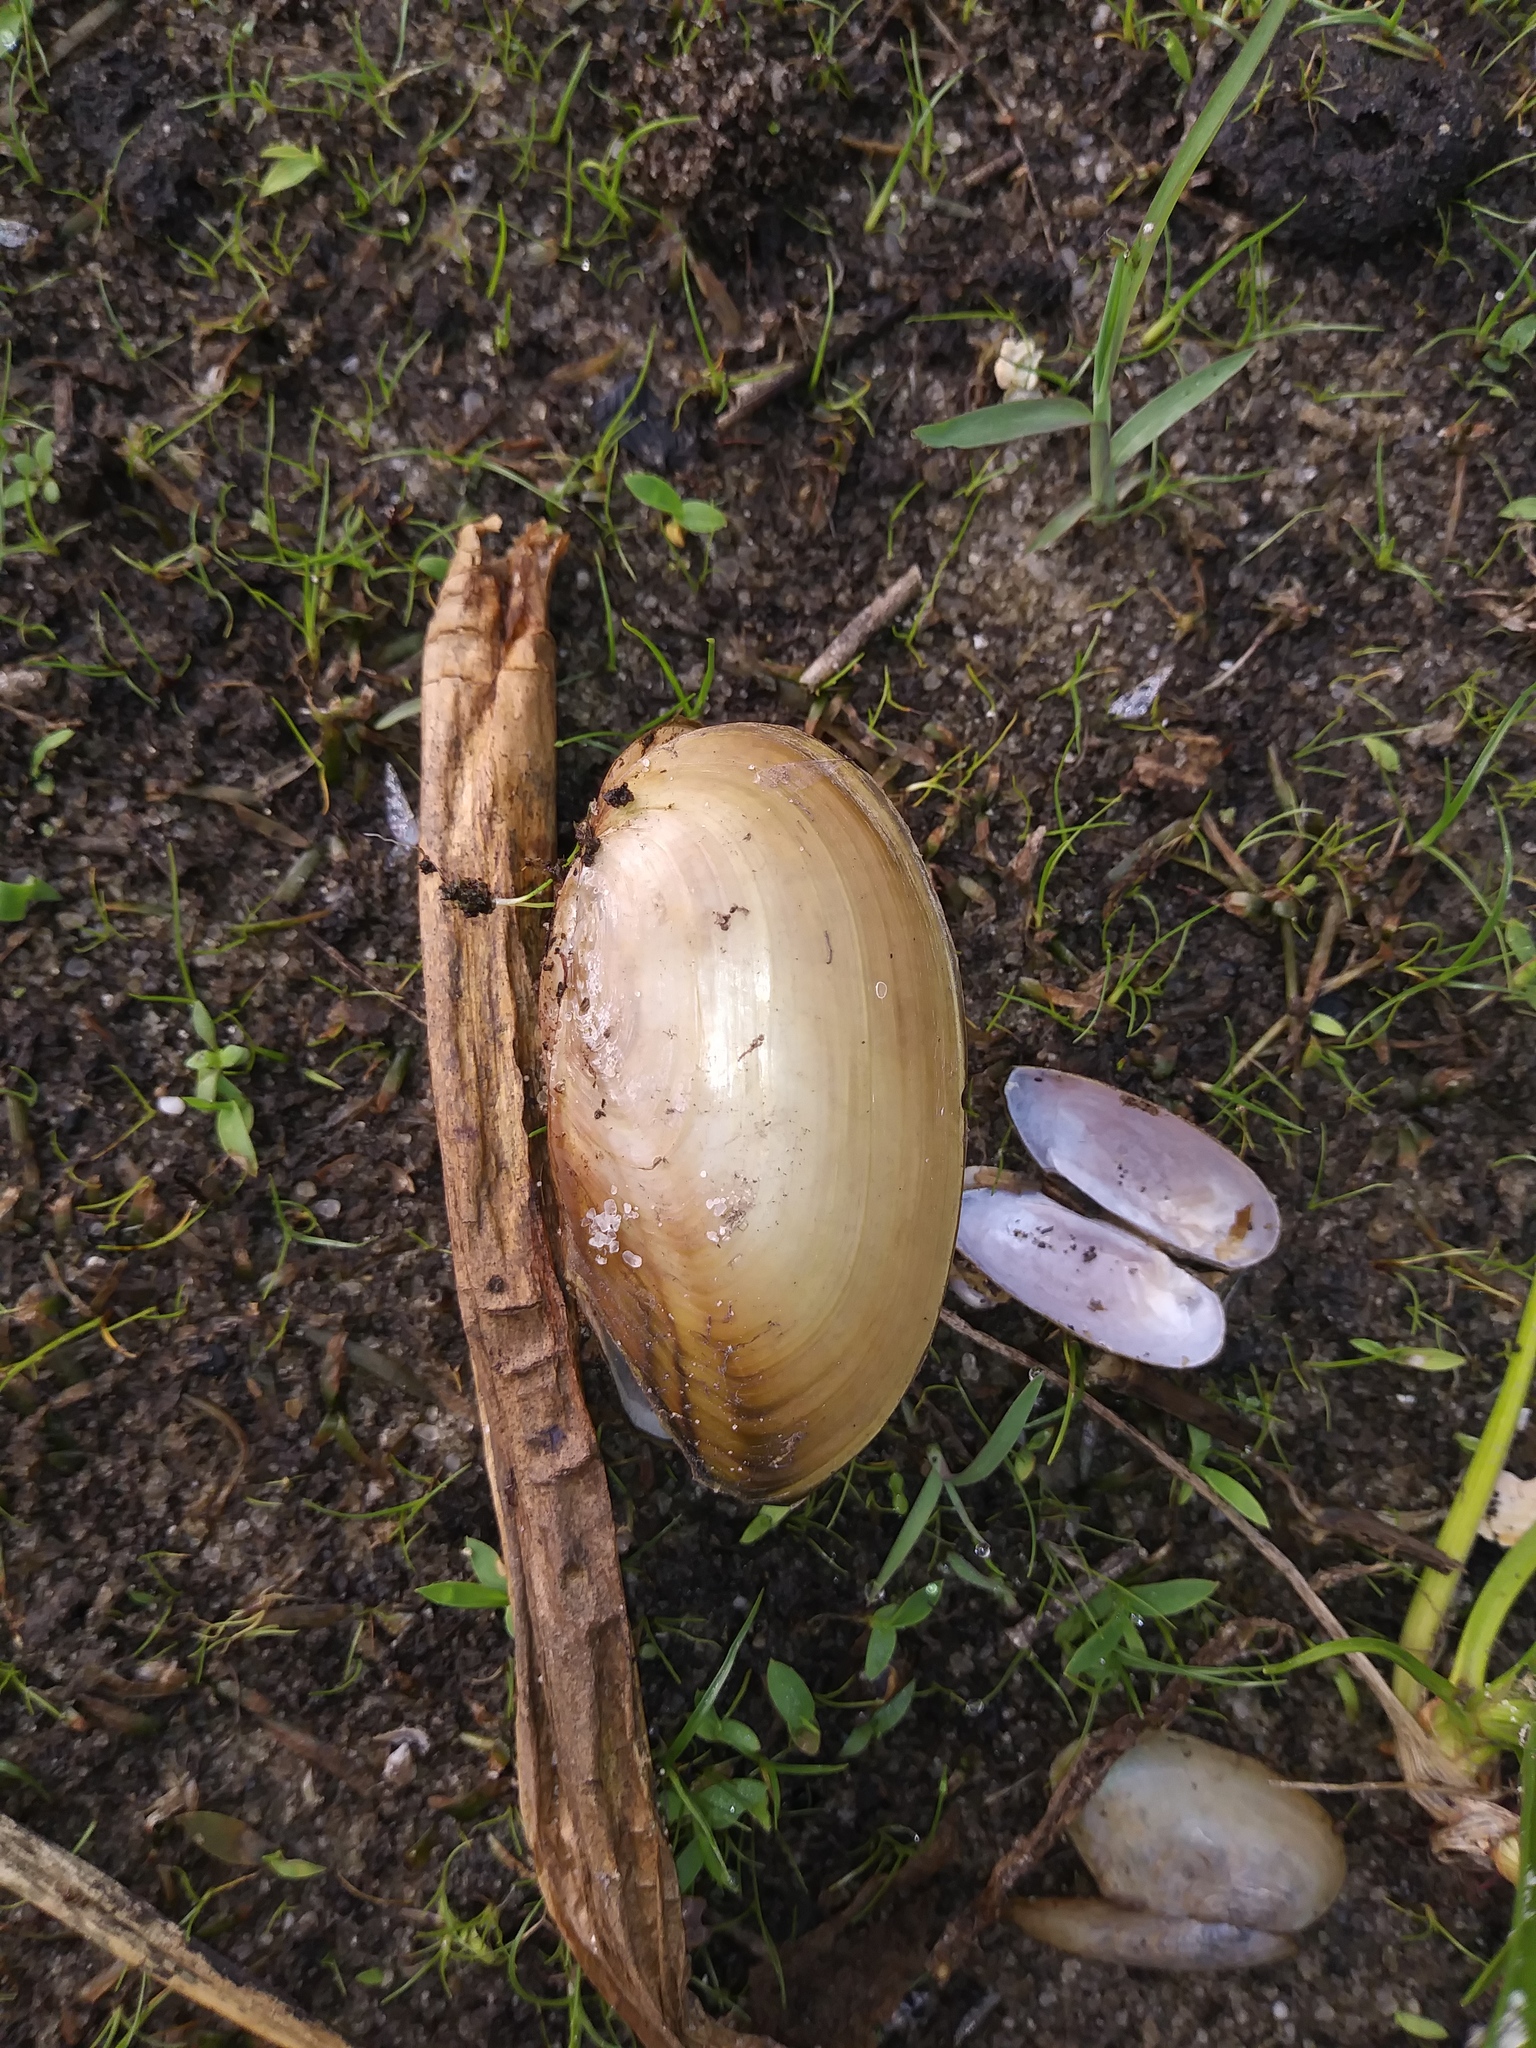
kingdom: Animalia
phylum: Mollusca
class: Bivalvia
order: Unionida
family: Unionidae
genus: Utterbackia
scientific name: Utterbackia imbecillis
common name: Paper pondshell
